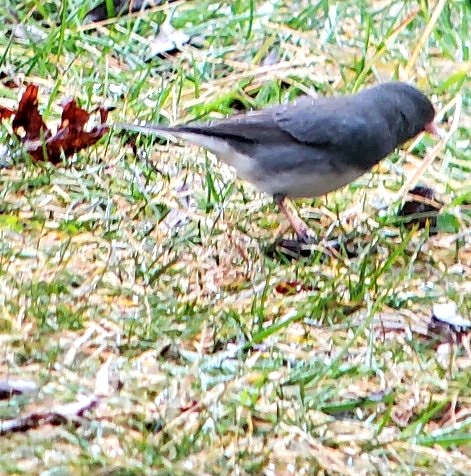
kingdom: Animalia
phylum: Chordata
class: Aves
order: Passeriformes
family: Passerellidae
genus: Junco
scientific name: Junco hyemalis
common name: Dark-eyed junco
